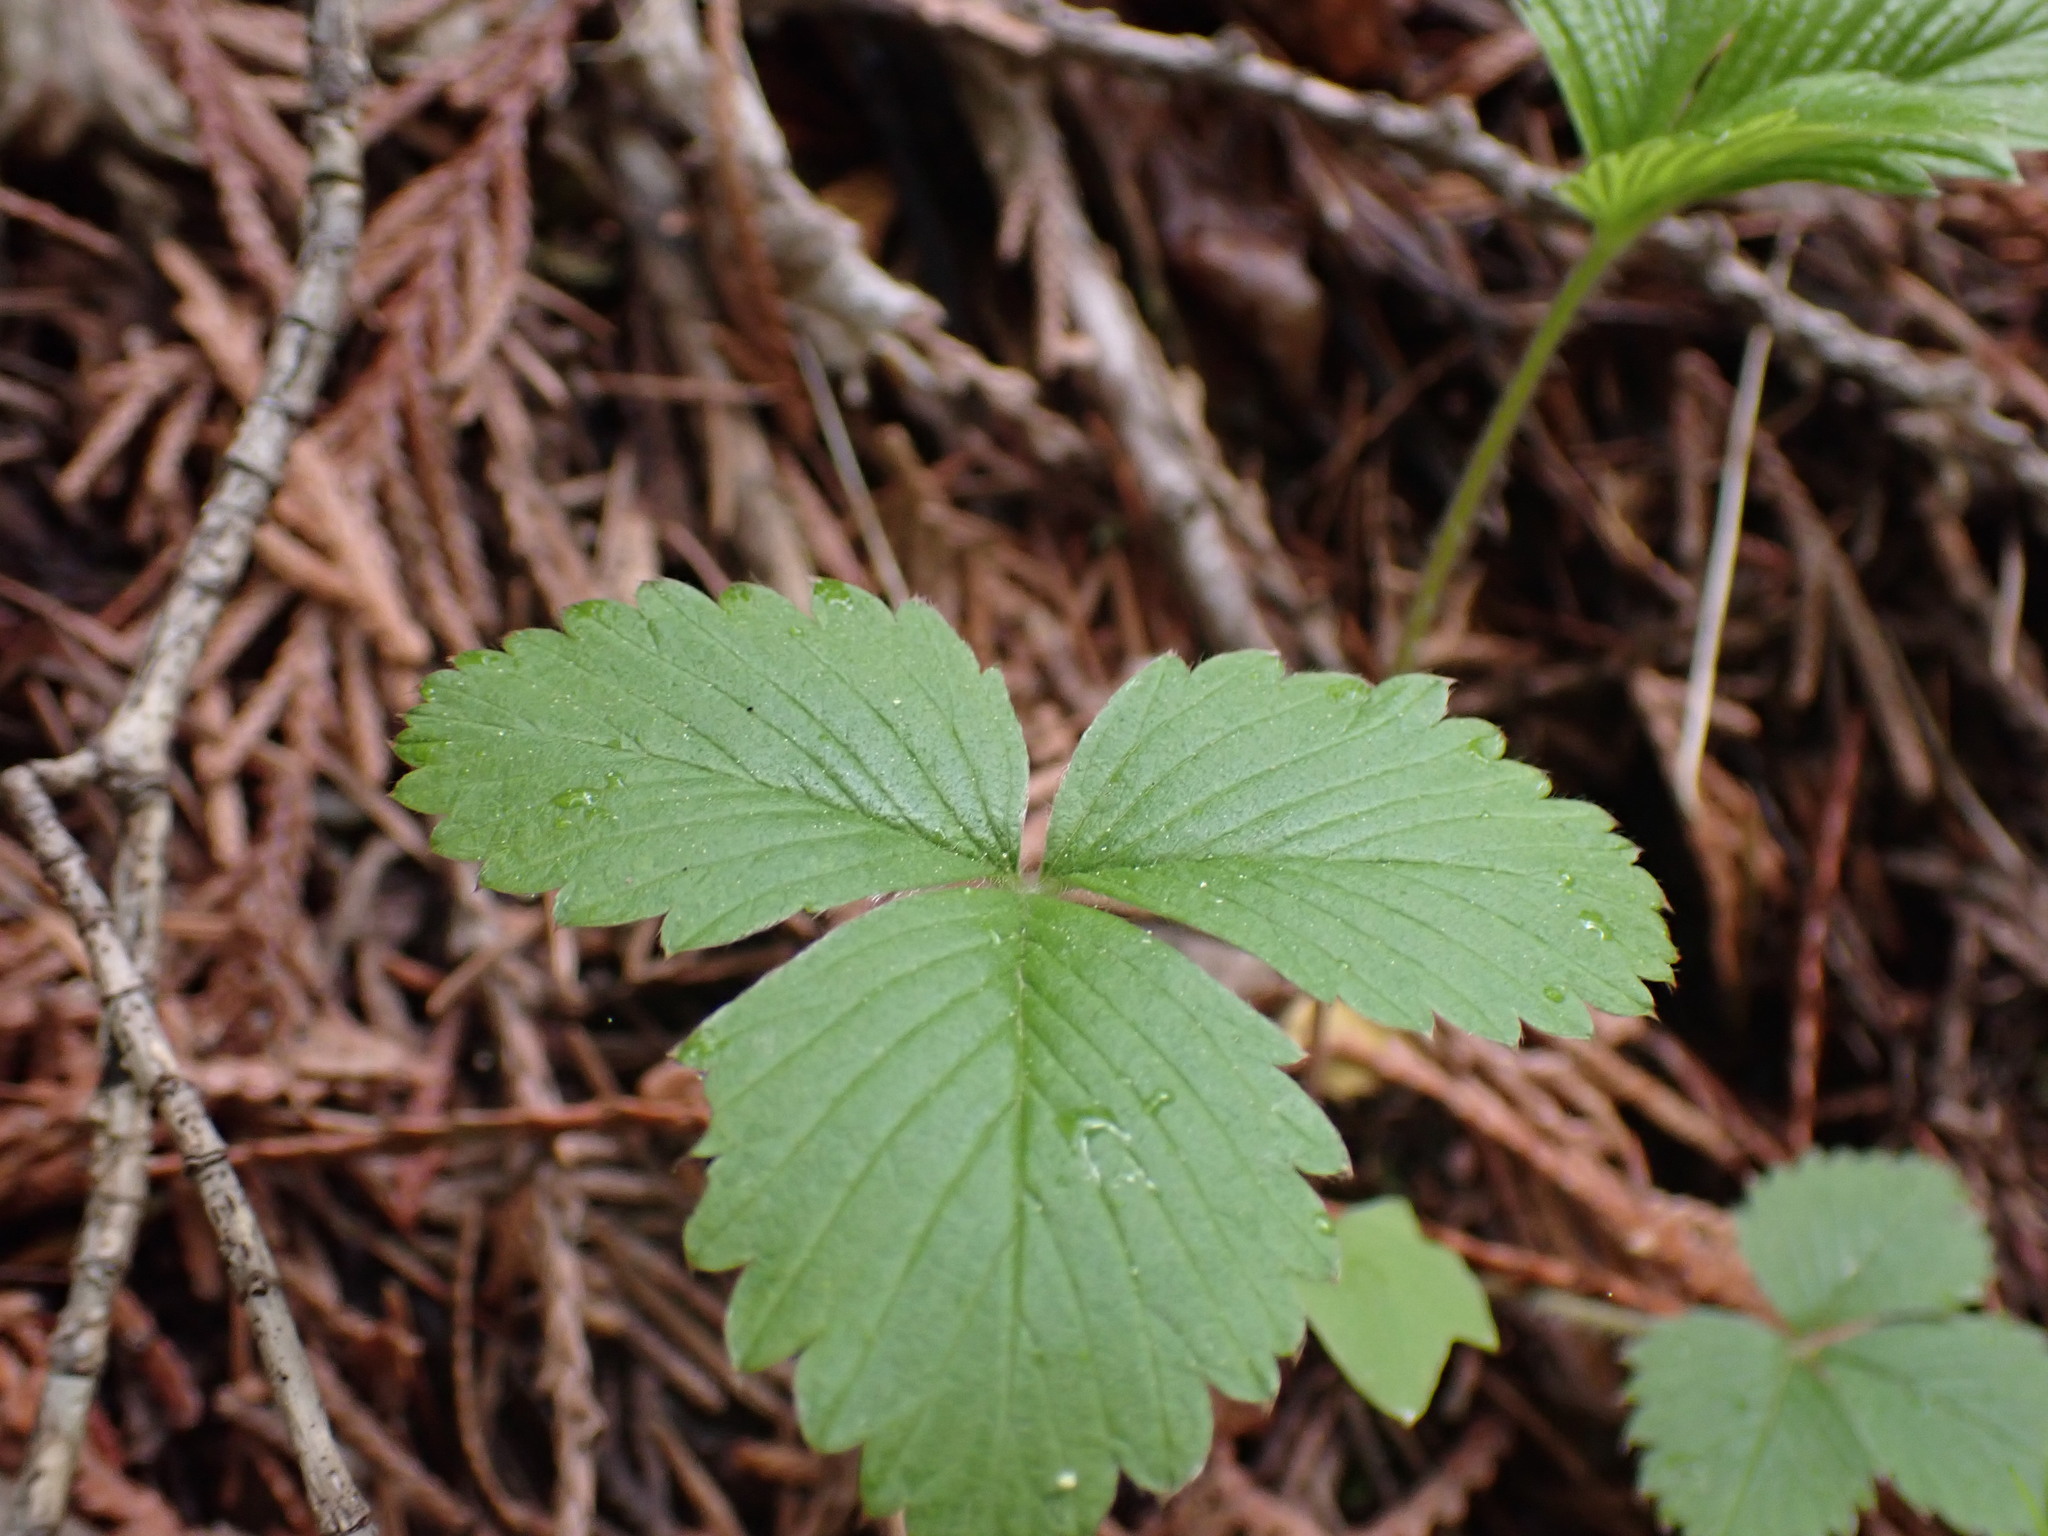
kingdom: Plantae
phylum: Tracheophyta
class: Magnoliopsida
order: Rosales
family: Rosaceae
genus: Fragaria
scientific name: Fragaria vesca
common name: Wild strawberry
